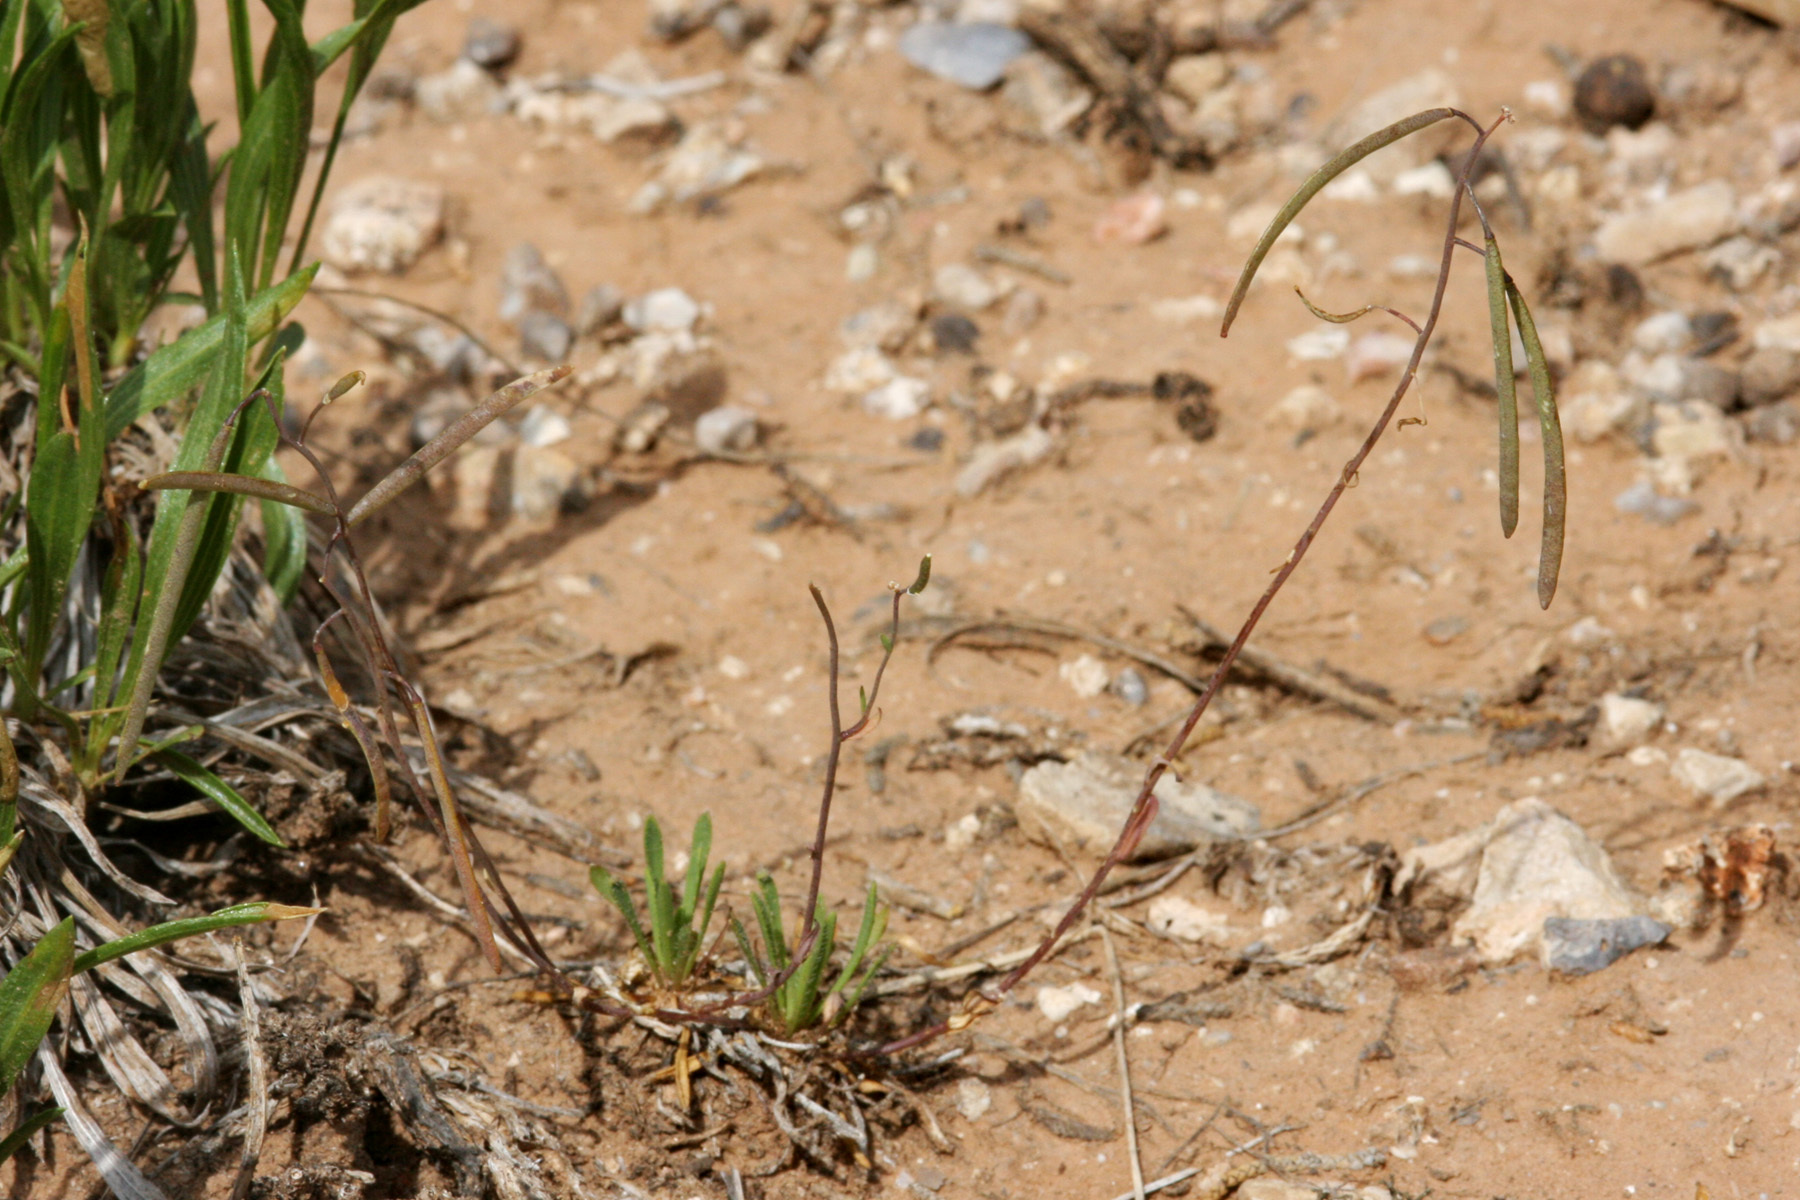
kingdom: Plantae
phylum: Tracheophyta
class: Magnoliopsida
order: Brassicales
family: Brassicaceae
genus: Boechera
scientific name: Boechera pendulina
